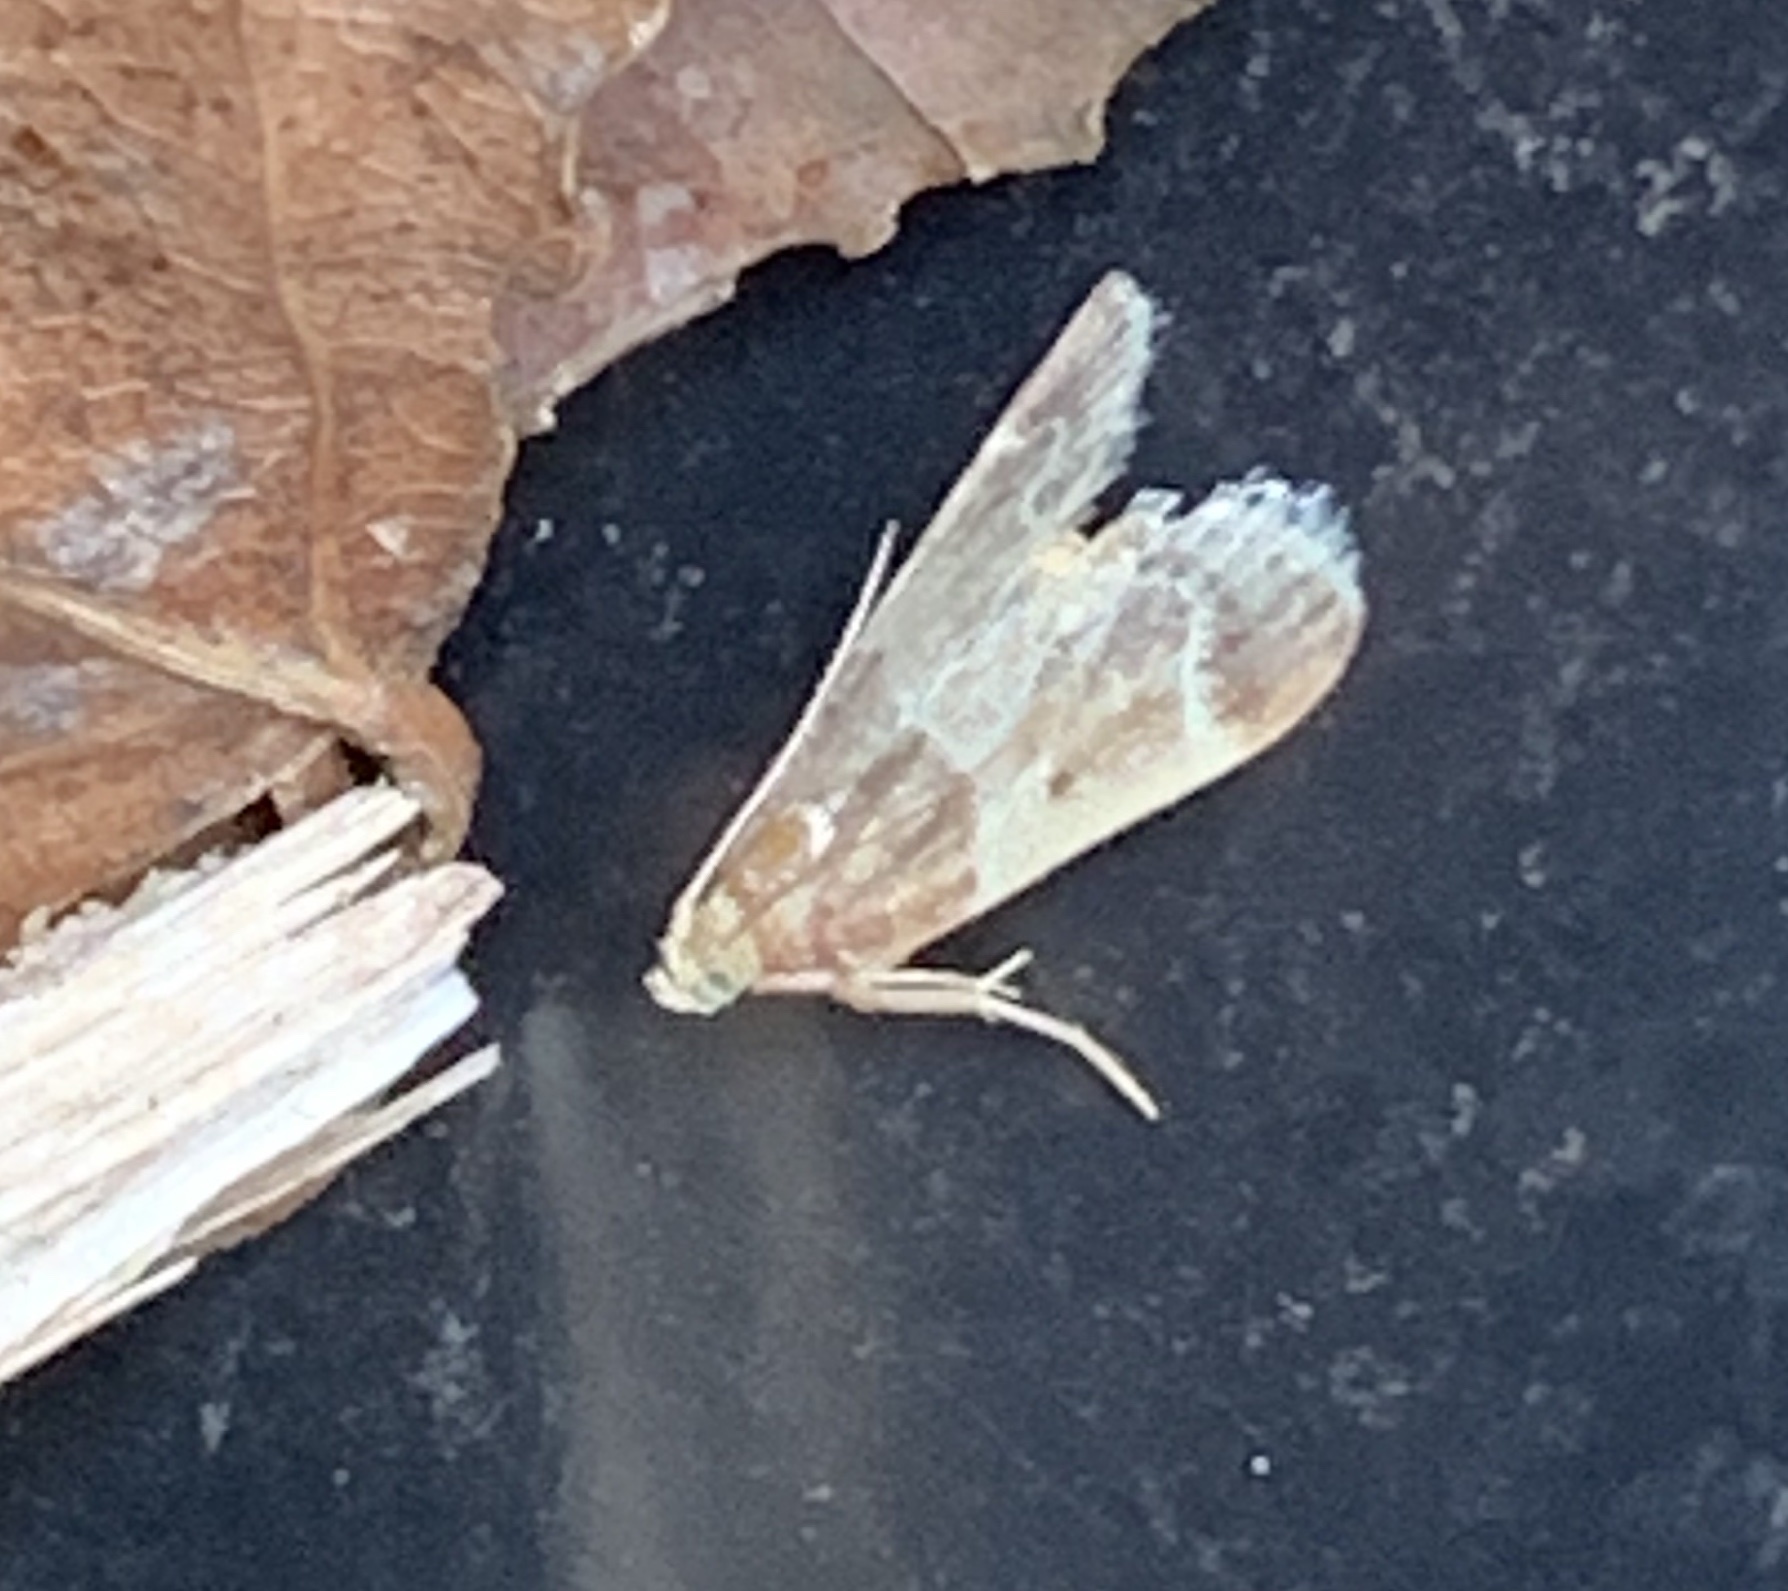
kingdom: Animalia
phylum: Arthropoda
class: Insecta
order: Lepidoptera
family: Pyralidae
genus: Pyralis
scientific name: Pyralis farinalis
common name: Meal moth
